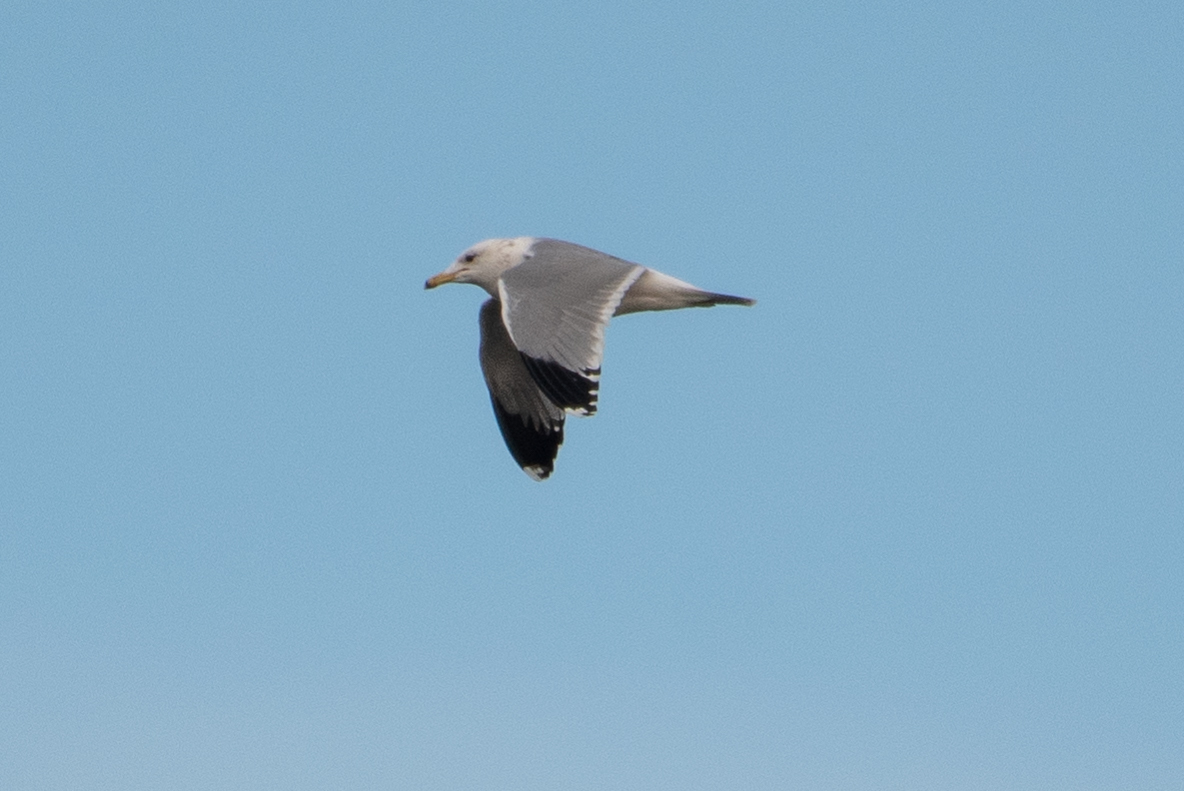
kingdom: Animalia
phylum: Chordata
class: Aves
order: Charadriiformes
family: Laridae
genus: Larus
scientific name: Larus californicus
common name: California gull
